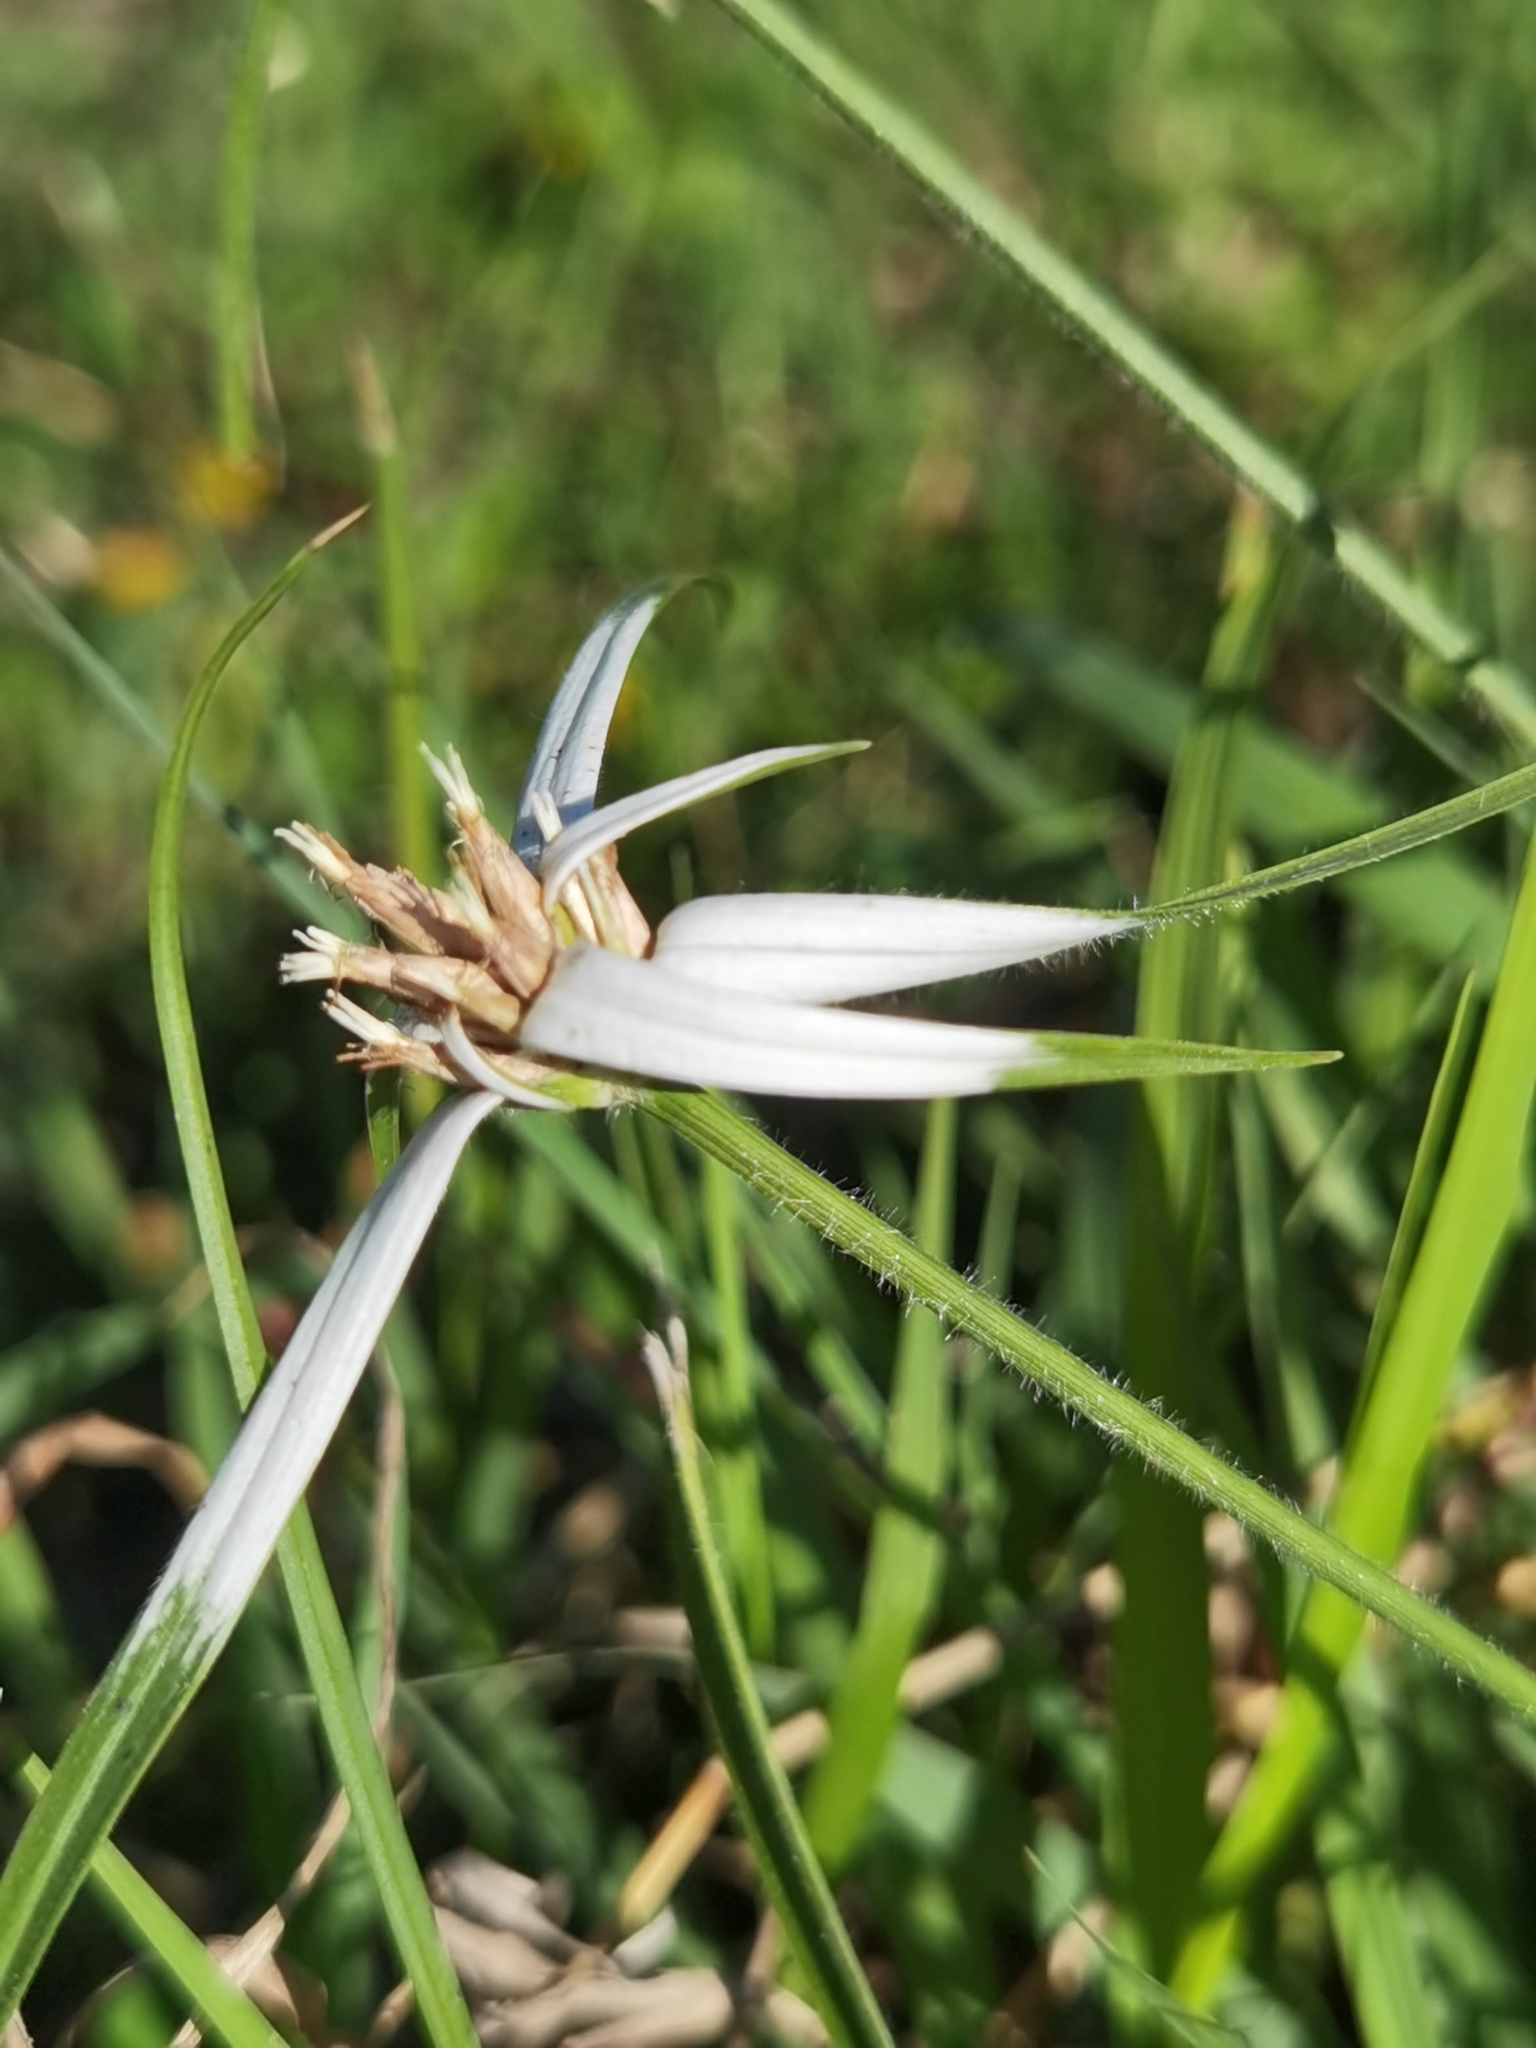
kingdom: Plantae
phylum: Tracheophyta
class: Liliopsida
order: Poales
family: Cyperaceae
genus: Rhynchospora
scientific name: Rhynchospora nervosa
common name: Star sedge
